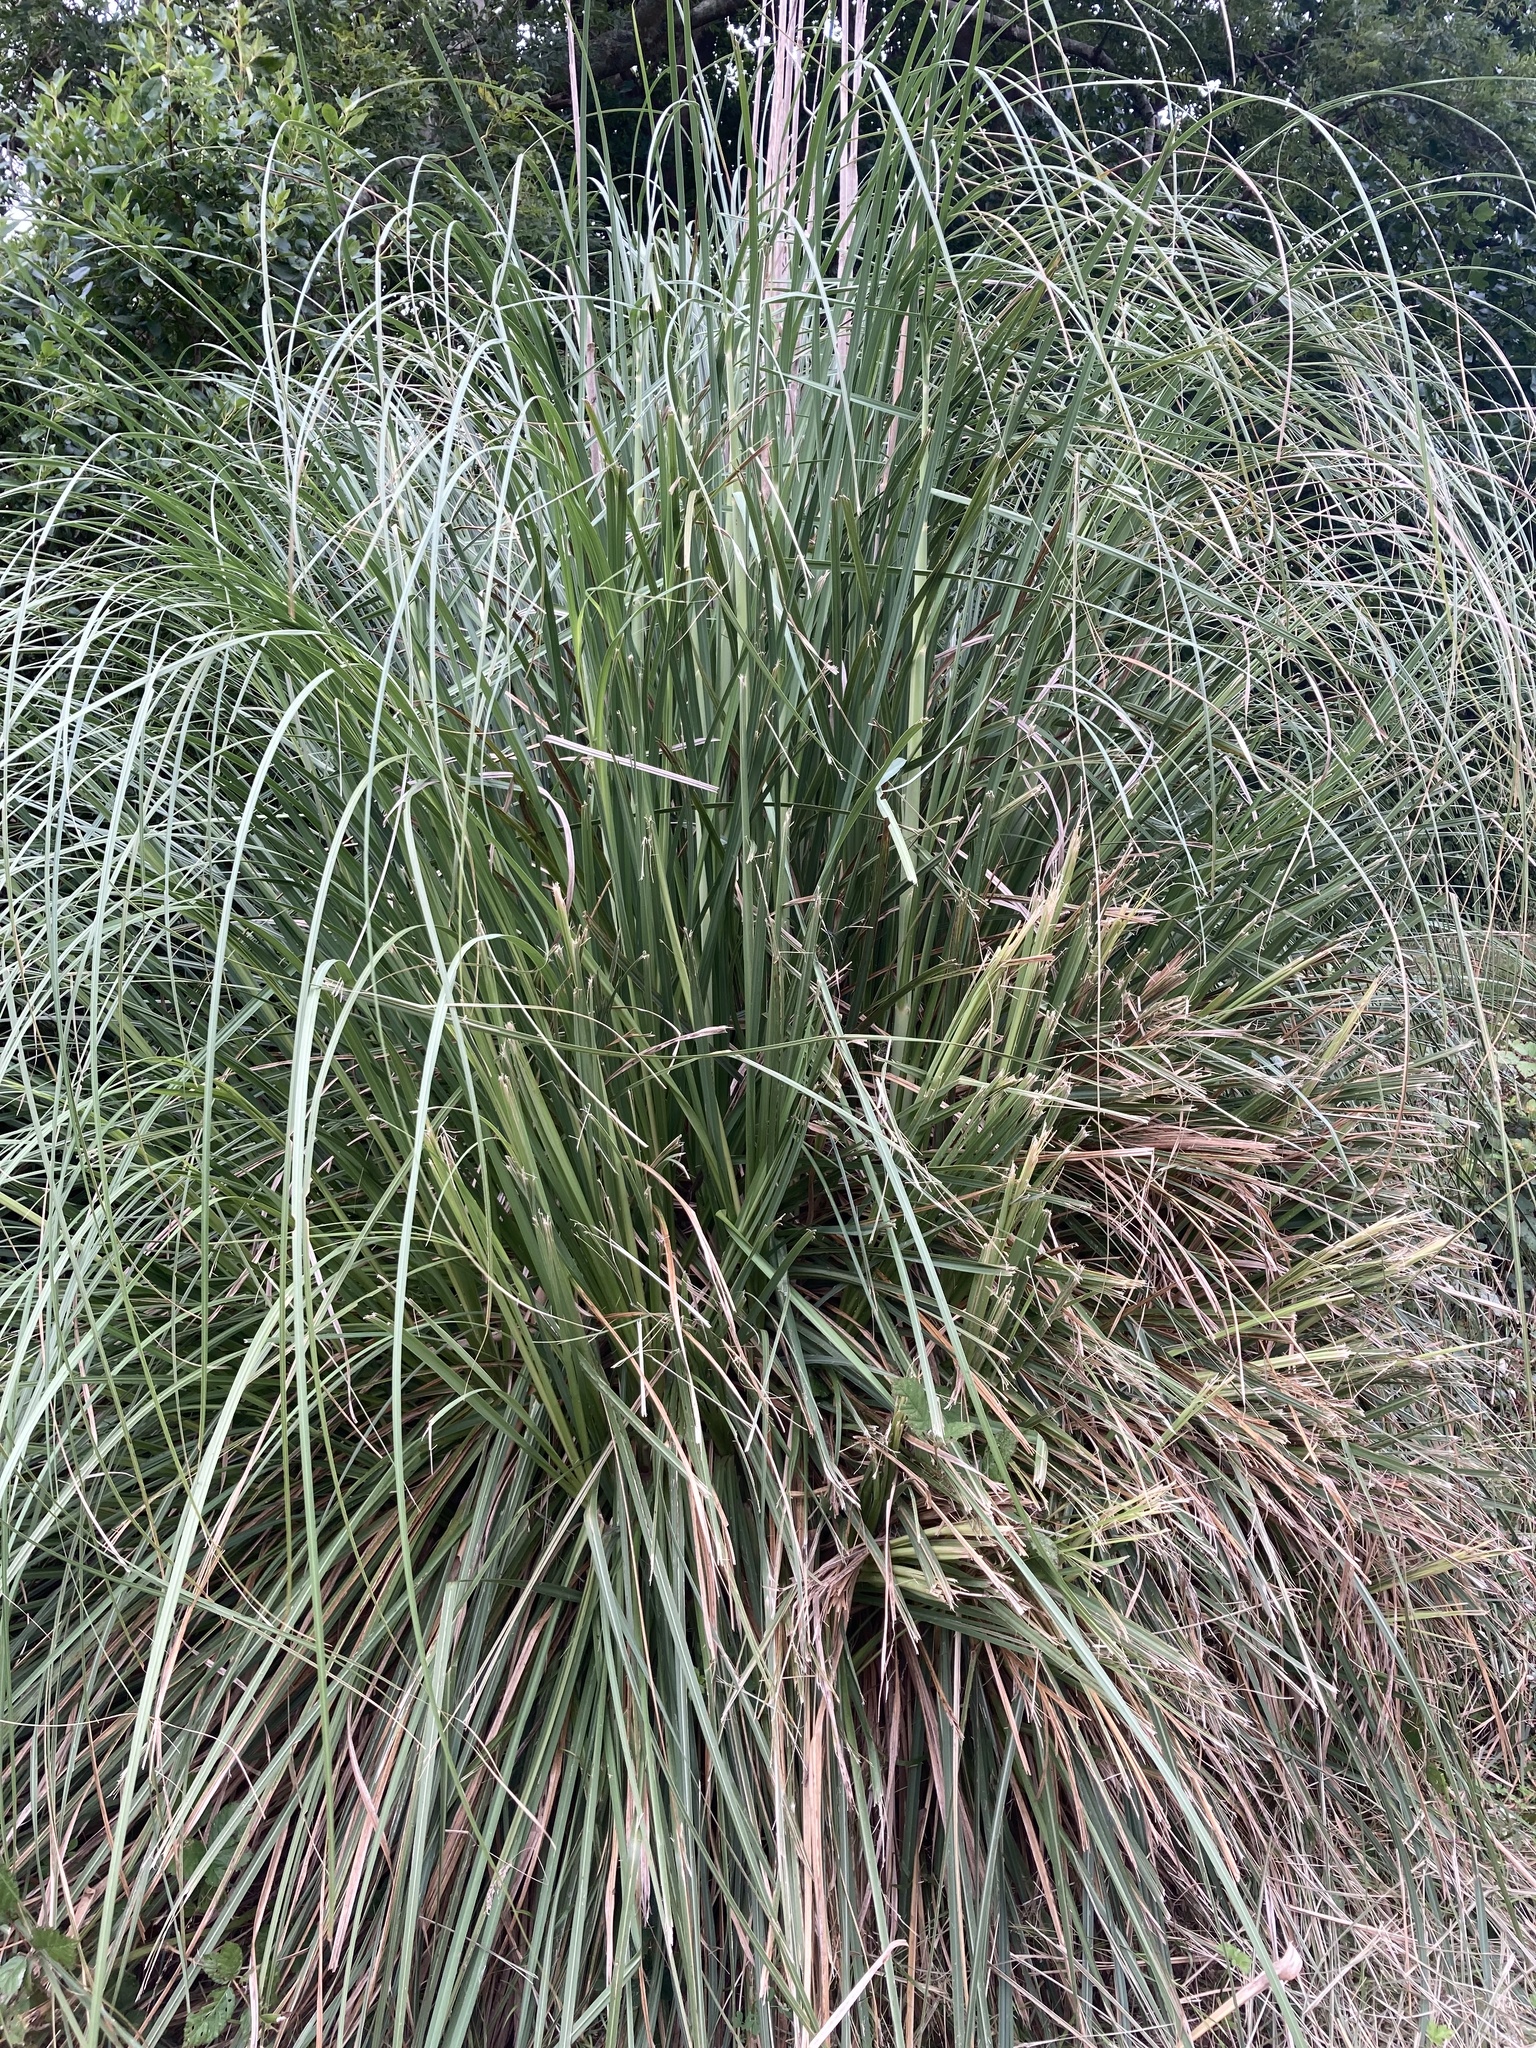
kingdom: Plantae
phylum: Tracheophyta
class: Liliopsida
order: Poales
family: Poaceae
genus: Cortaderia
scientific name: Cortaderia selloana
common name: Uruguayan pampas grass
